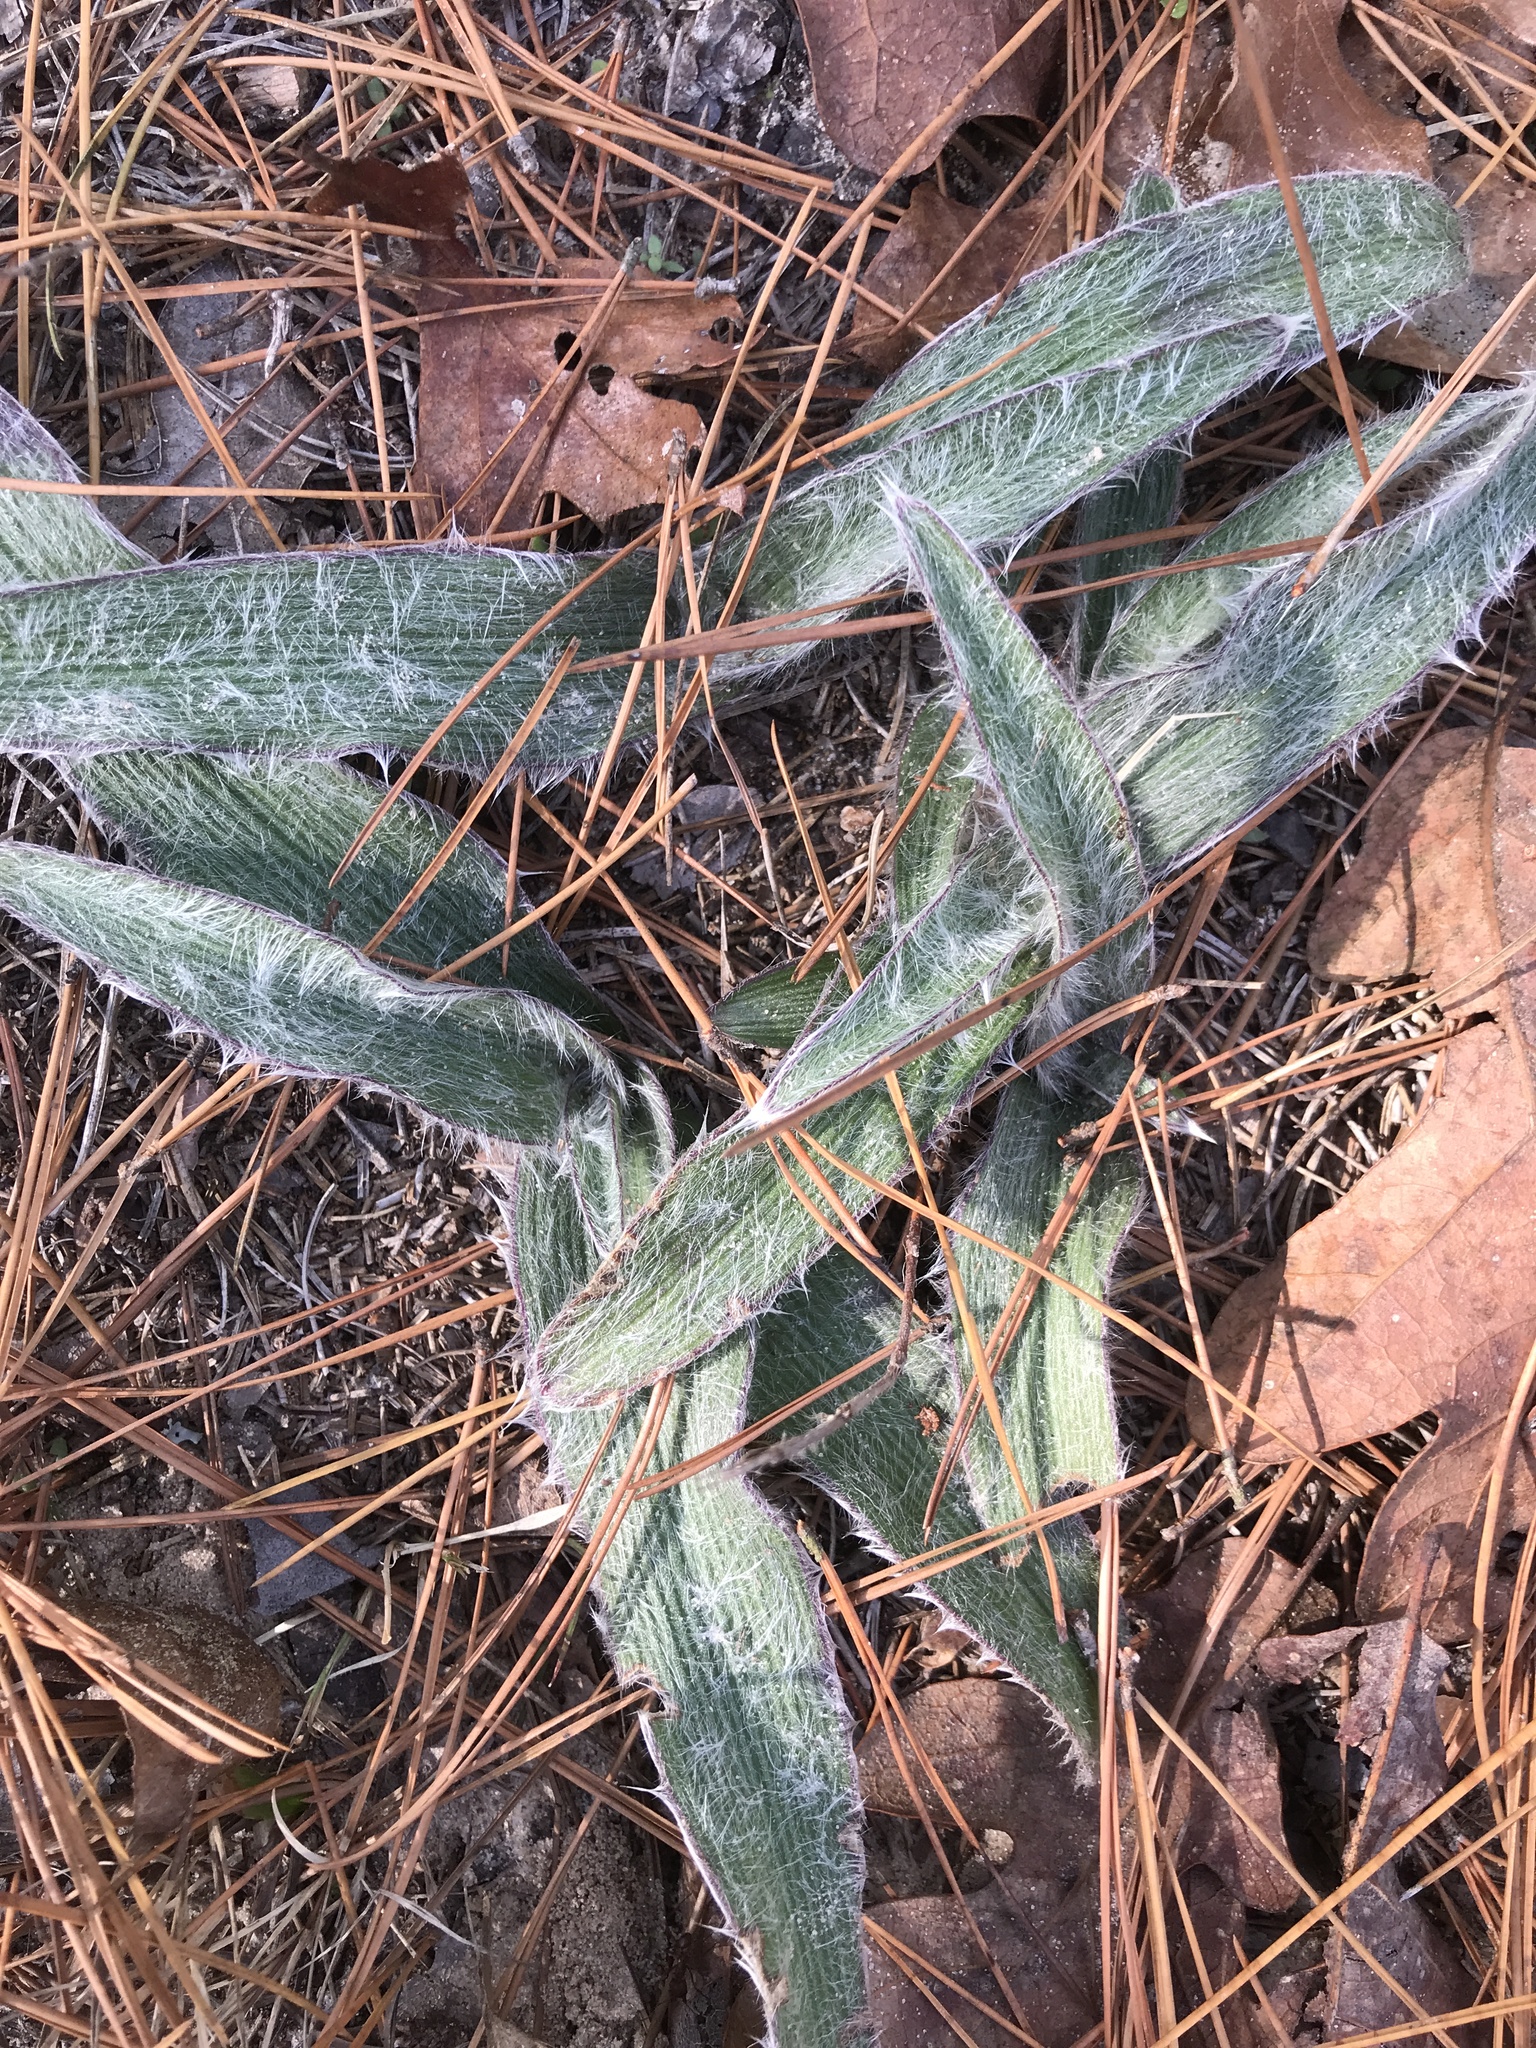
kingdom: Plantae
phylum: Tracheophyta
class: Liliopsida
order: Commelinales
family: Commelinaceae
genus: Tradescantia
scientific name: Tradescantia hirsutiflora
